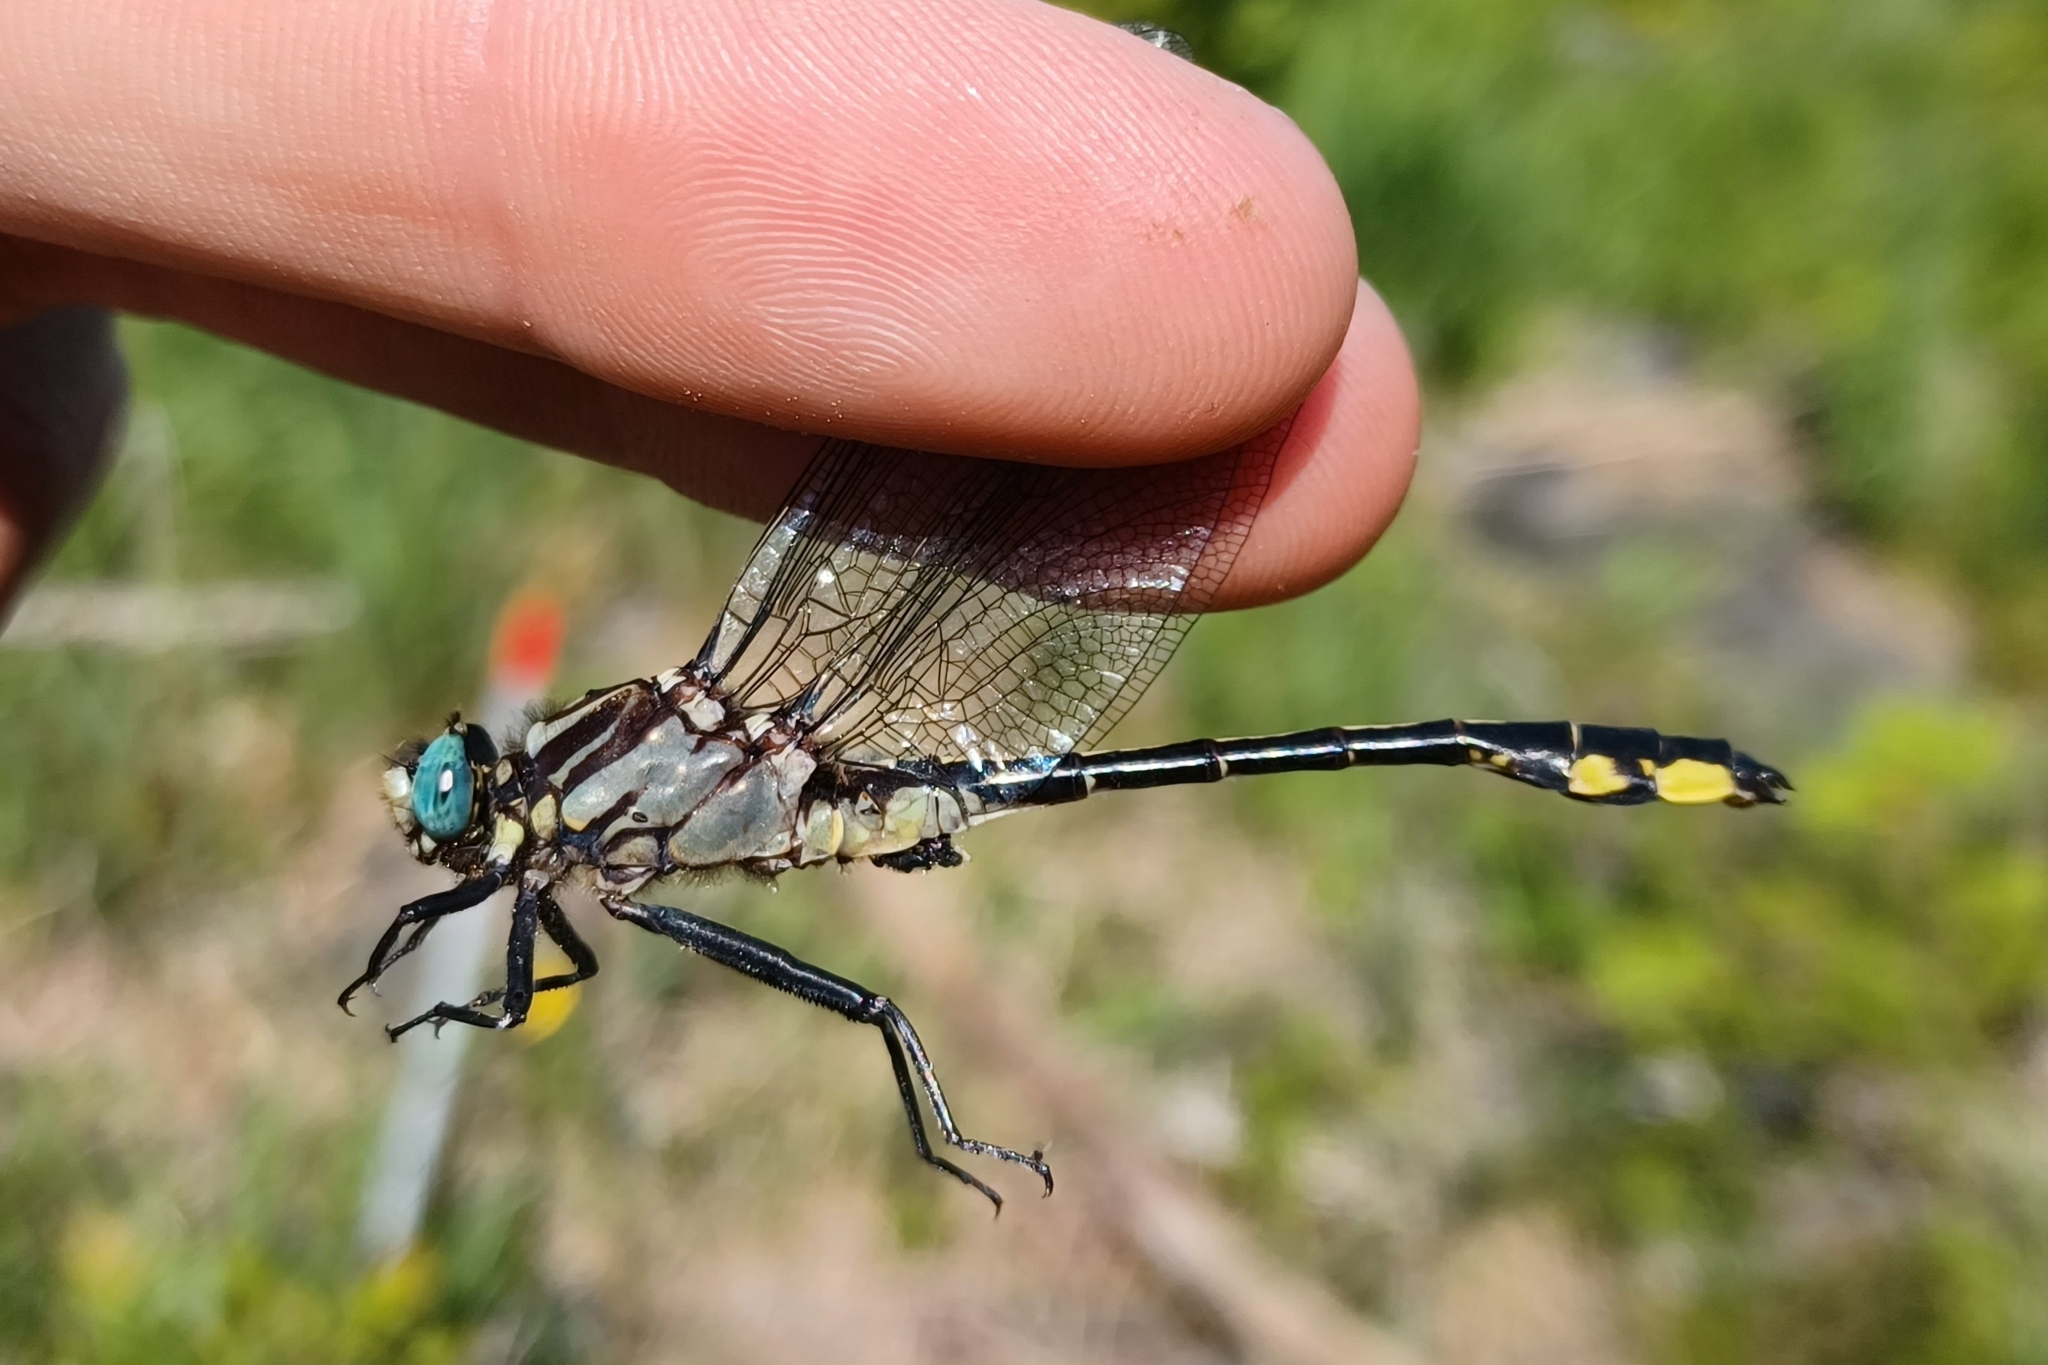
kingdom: Animalia
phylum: Arthropoda
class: Insecta
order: Odonata
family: Gomphidae
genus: Gomphurus
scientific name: Gomphurus fraternus
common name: Midland clubtail
